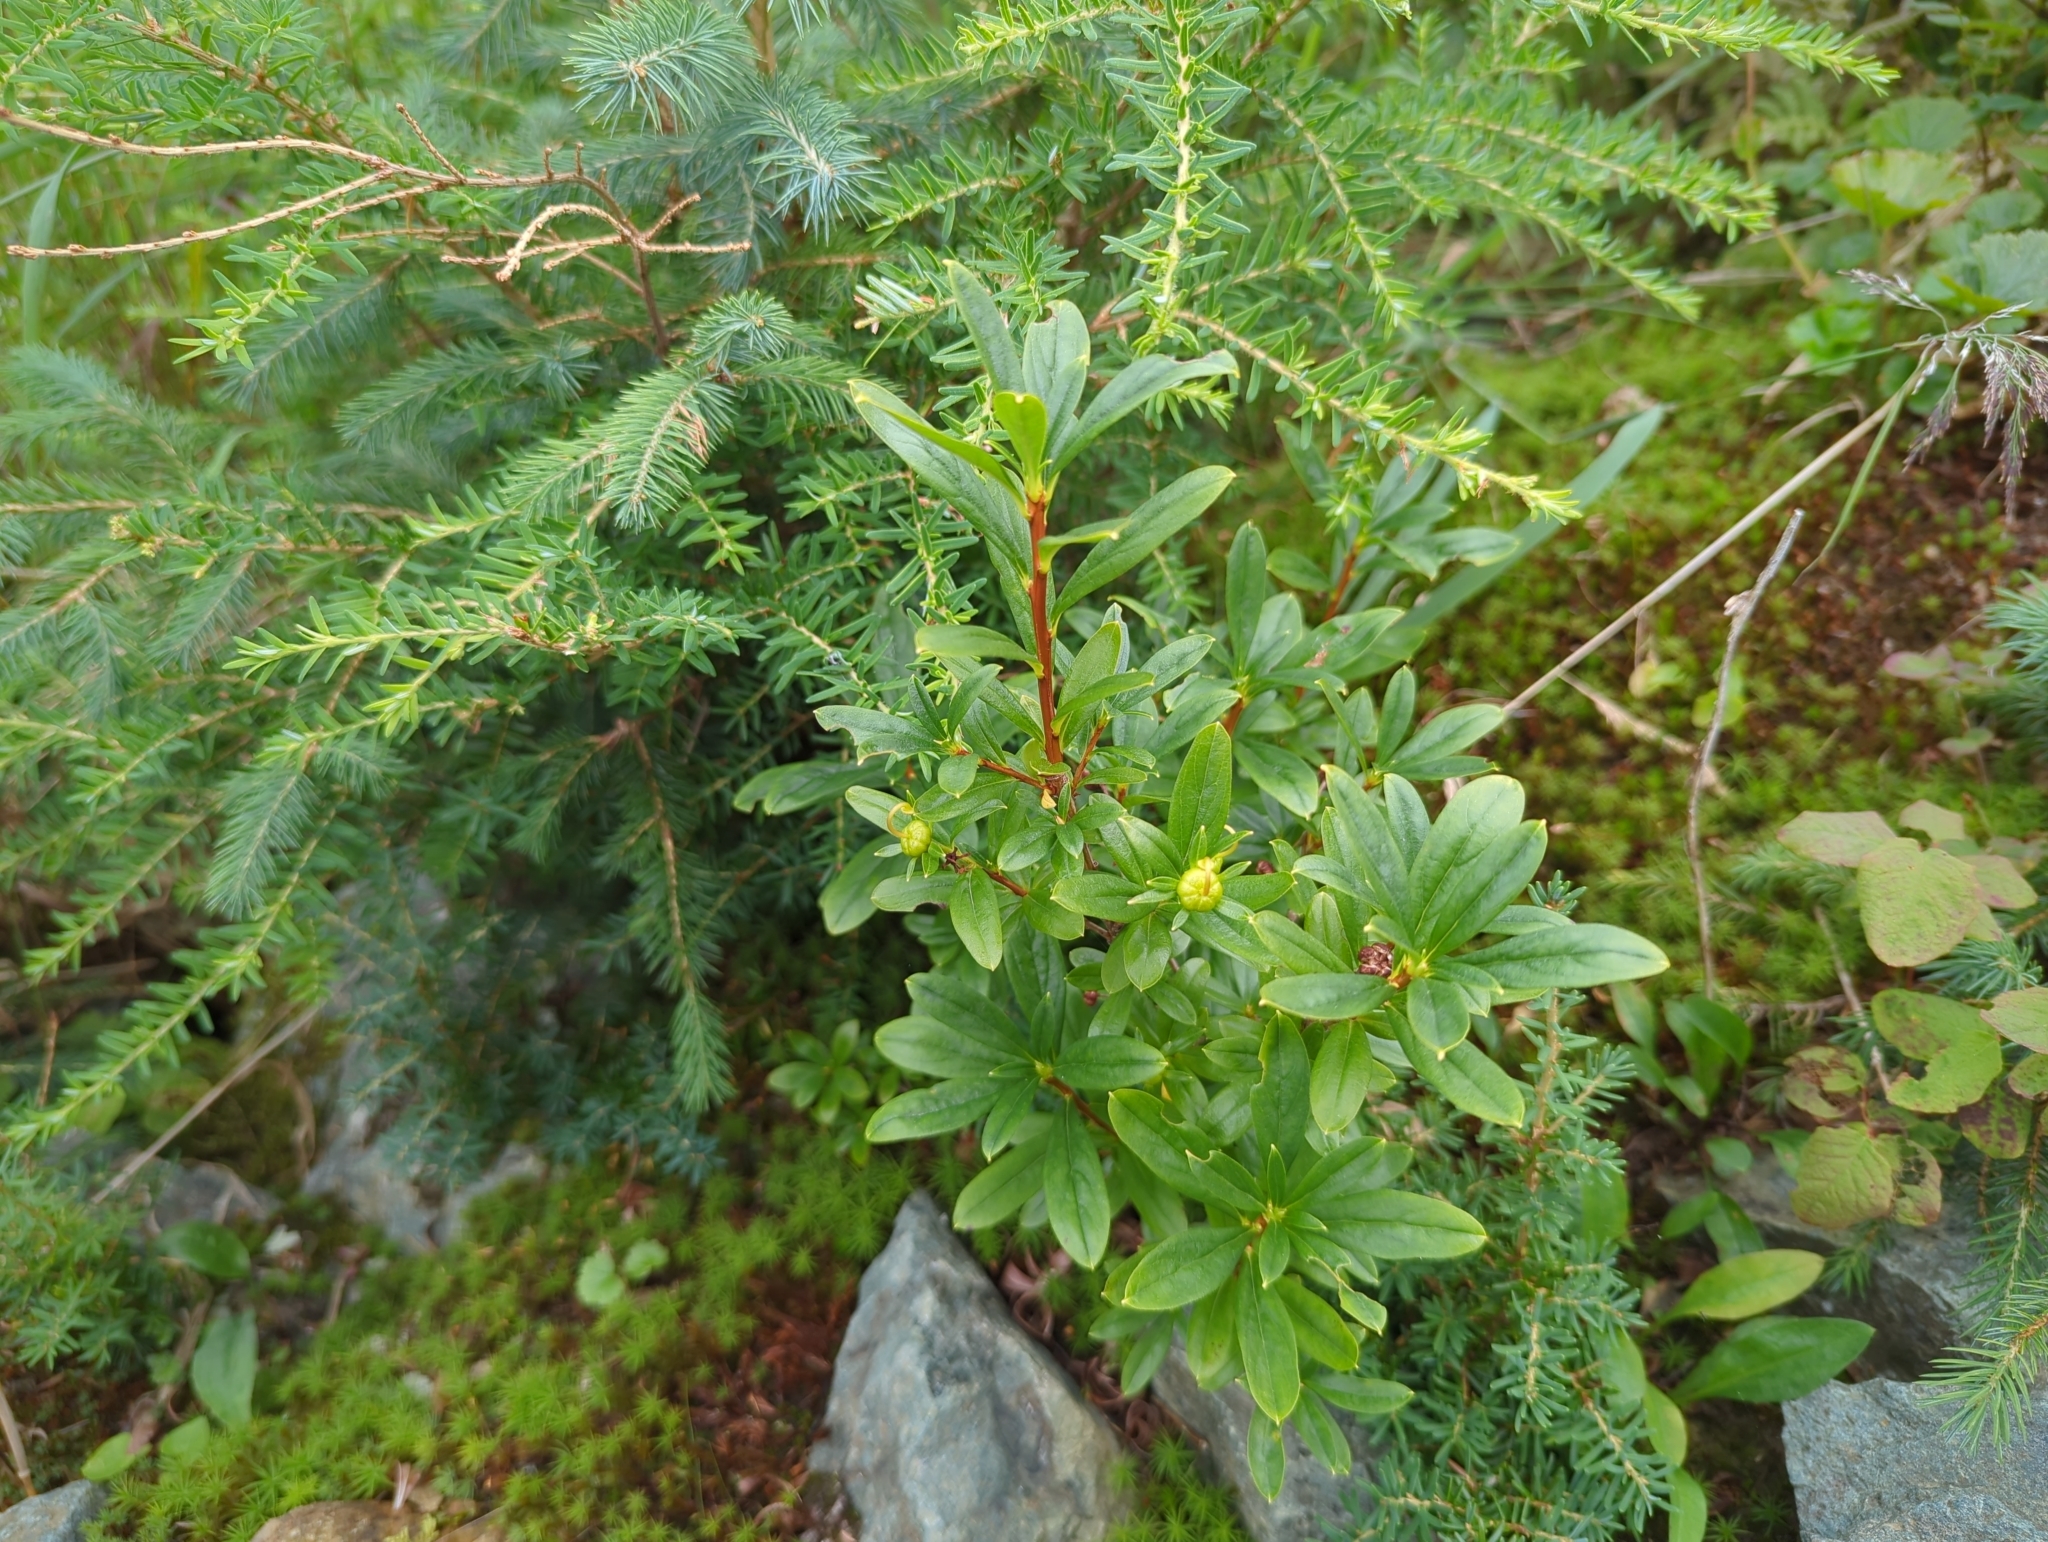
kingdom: Plantae
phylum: Tracheophyta
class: Magnoliopsida
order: Ericales
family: Ericaceae
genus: Elliottia
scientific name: Elliottia pyroliflora
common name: Copperbush
